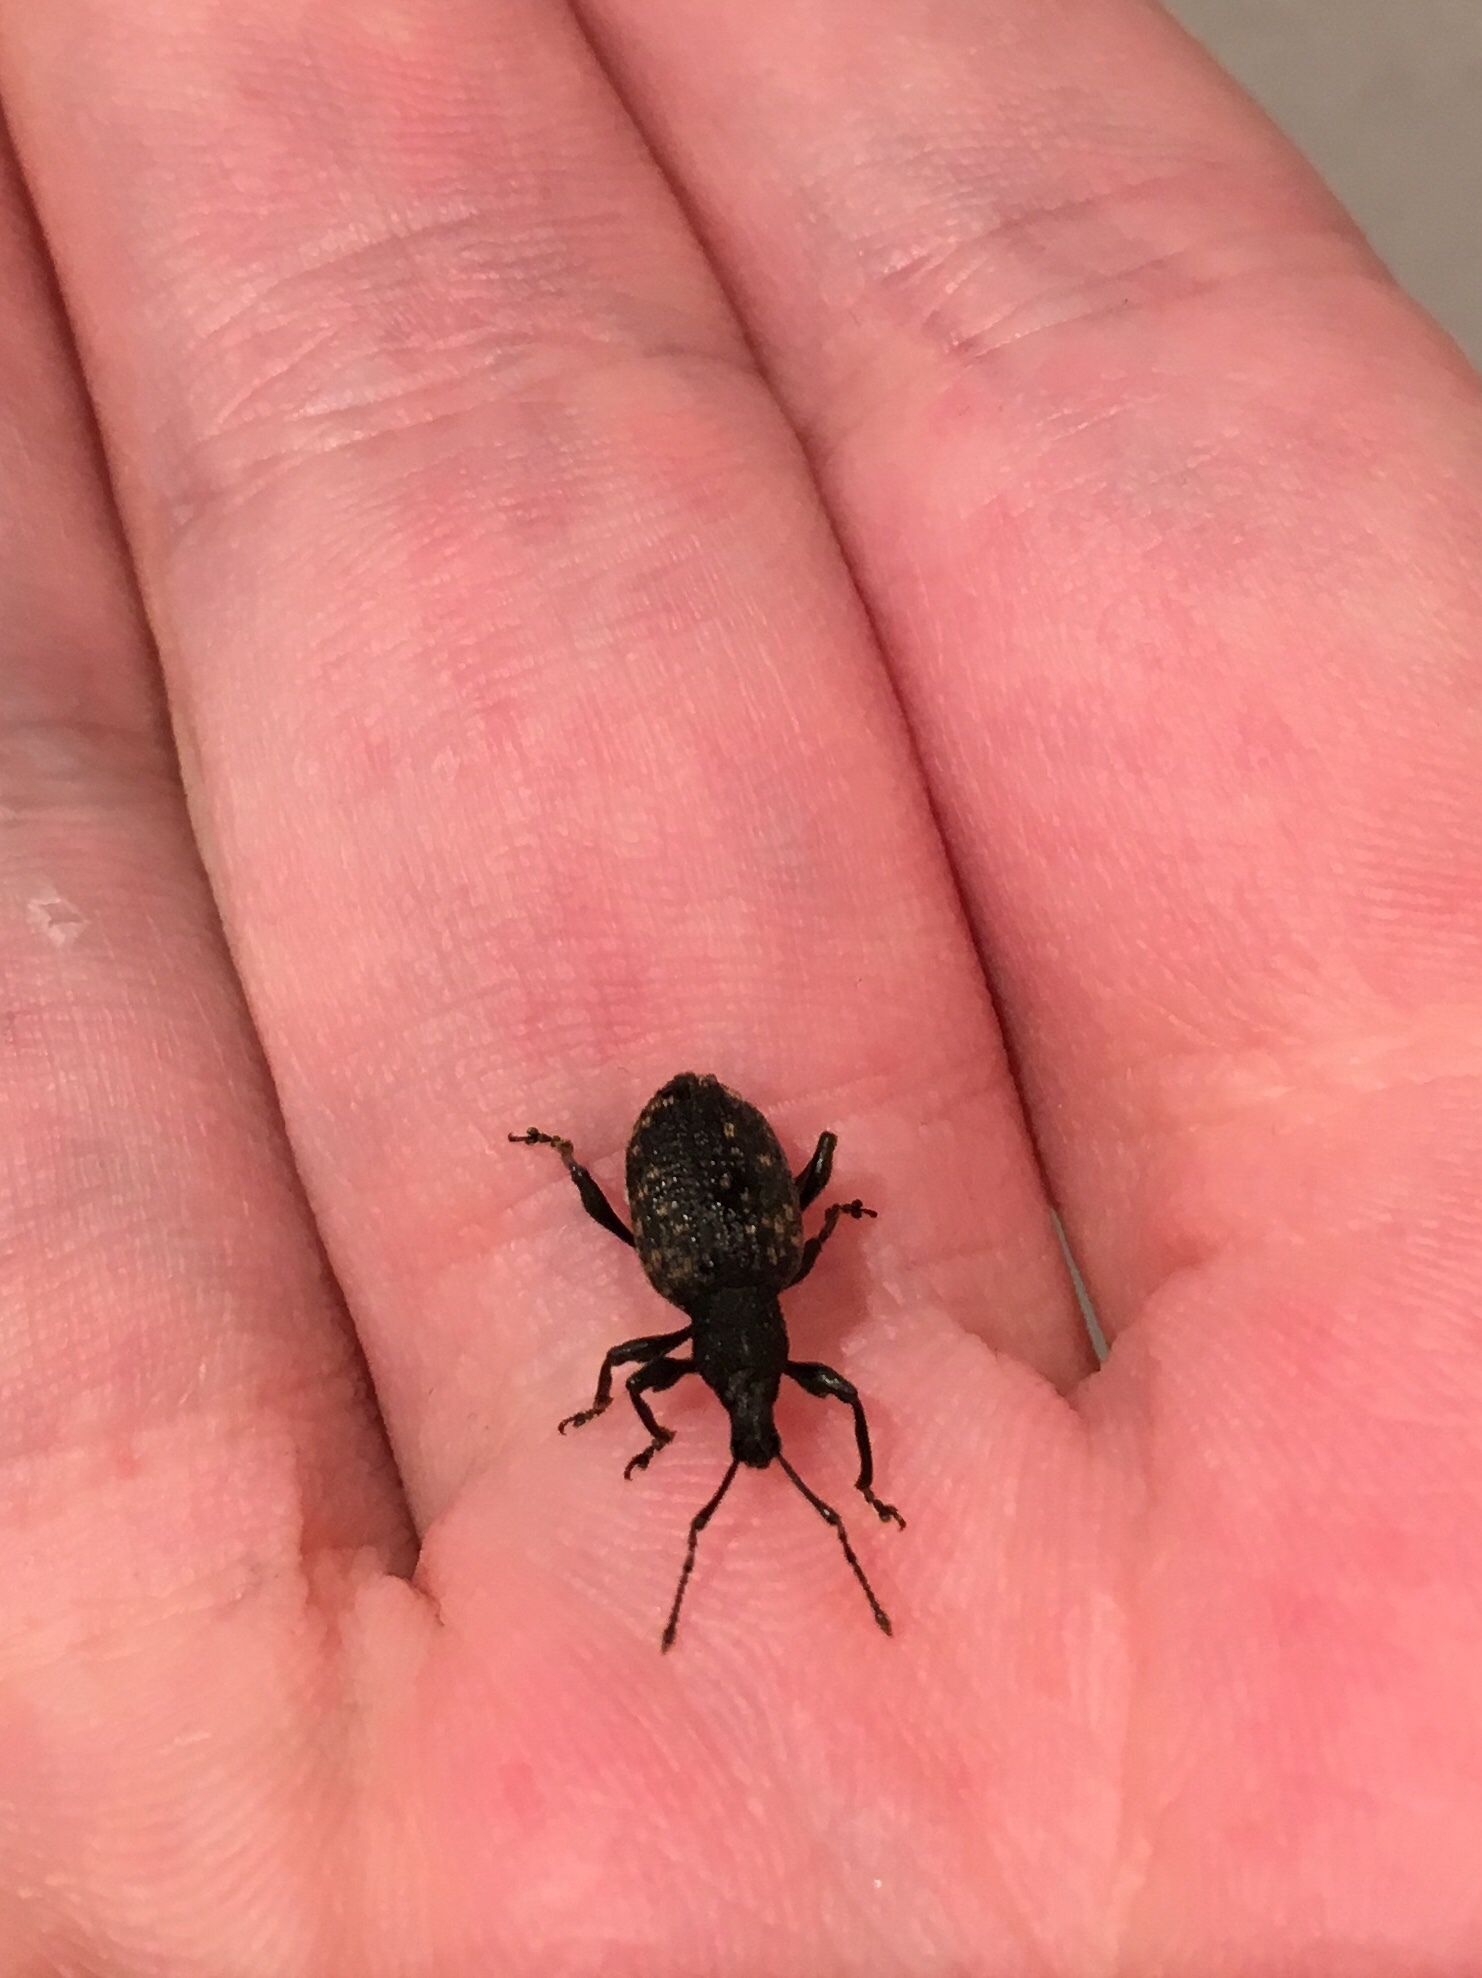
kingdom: Animalia
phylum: Arthropoda
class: Insecta
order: Coleoptera
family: Curculionidae
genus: Otiorhynchus
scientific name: Otiorhynchus sulcatus
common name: Black vine weevil
